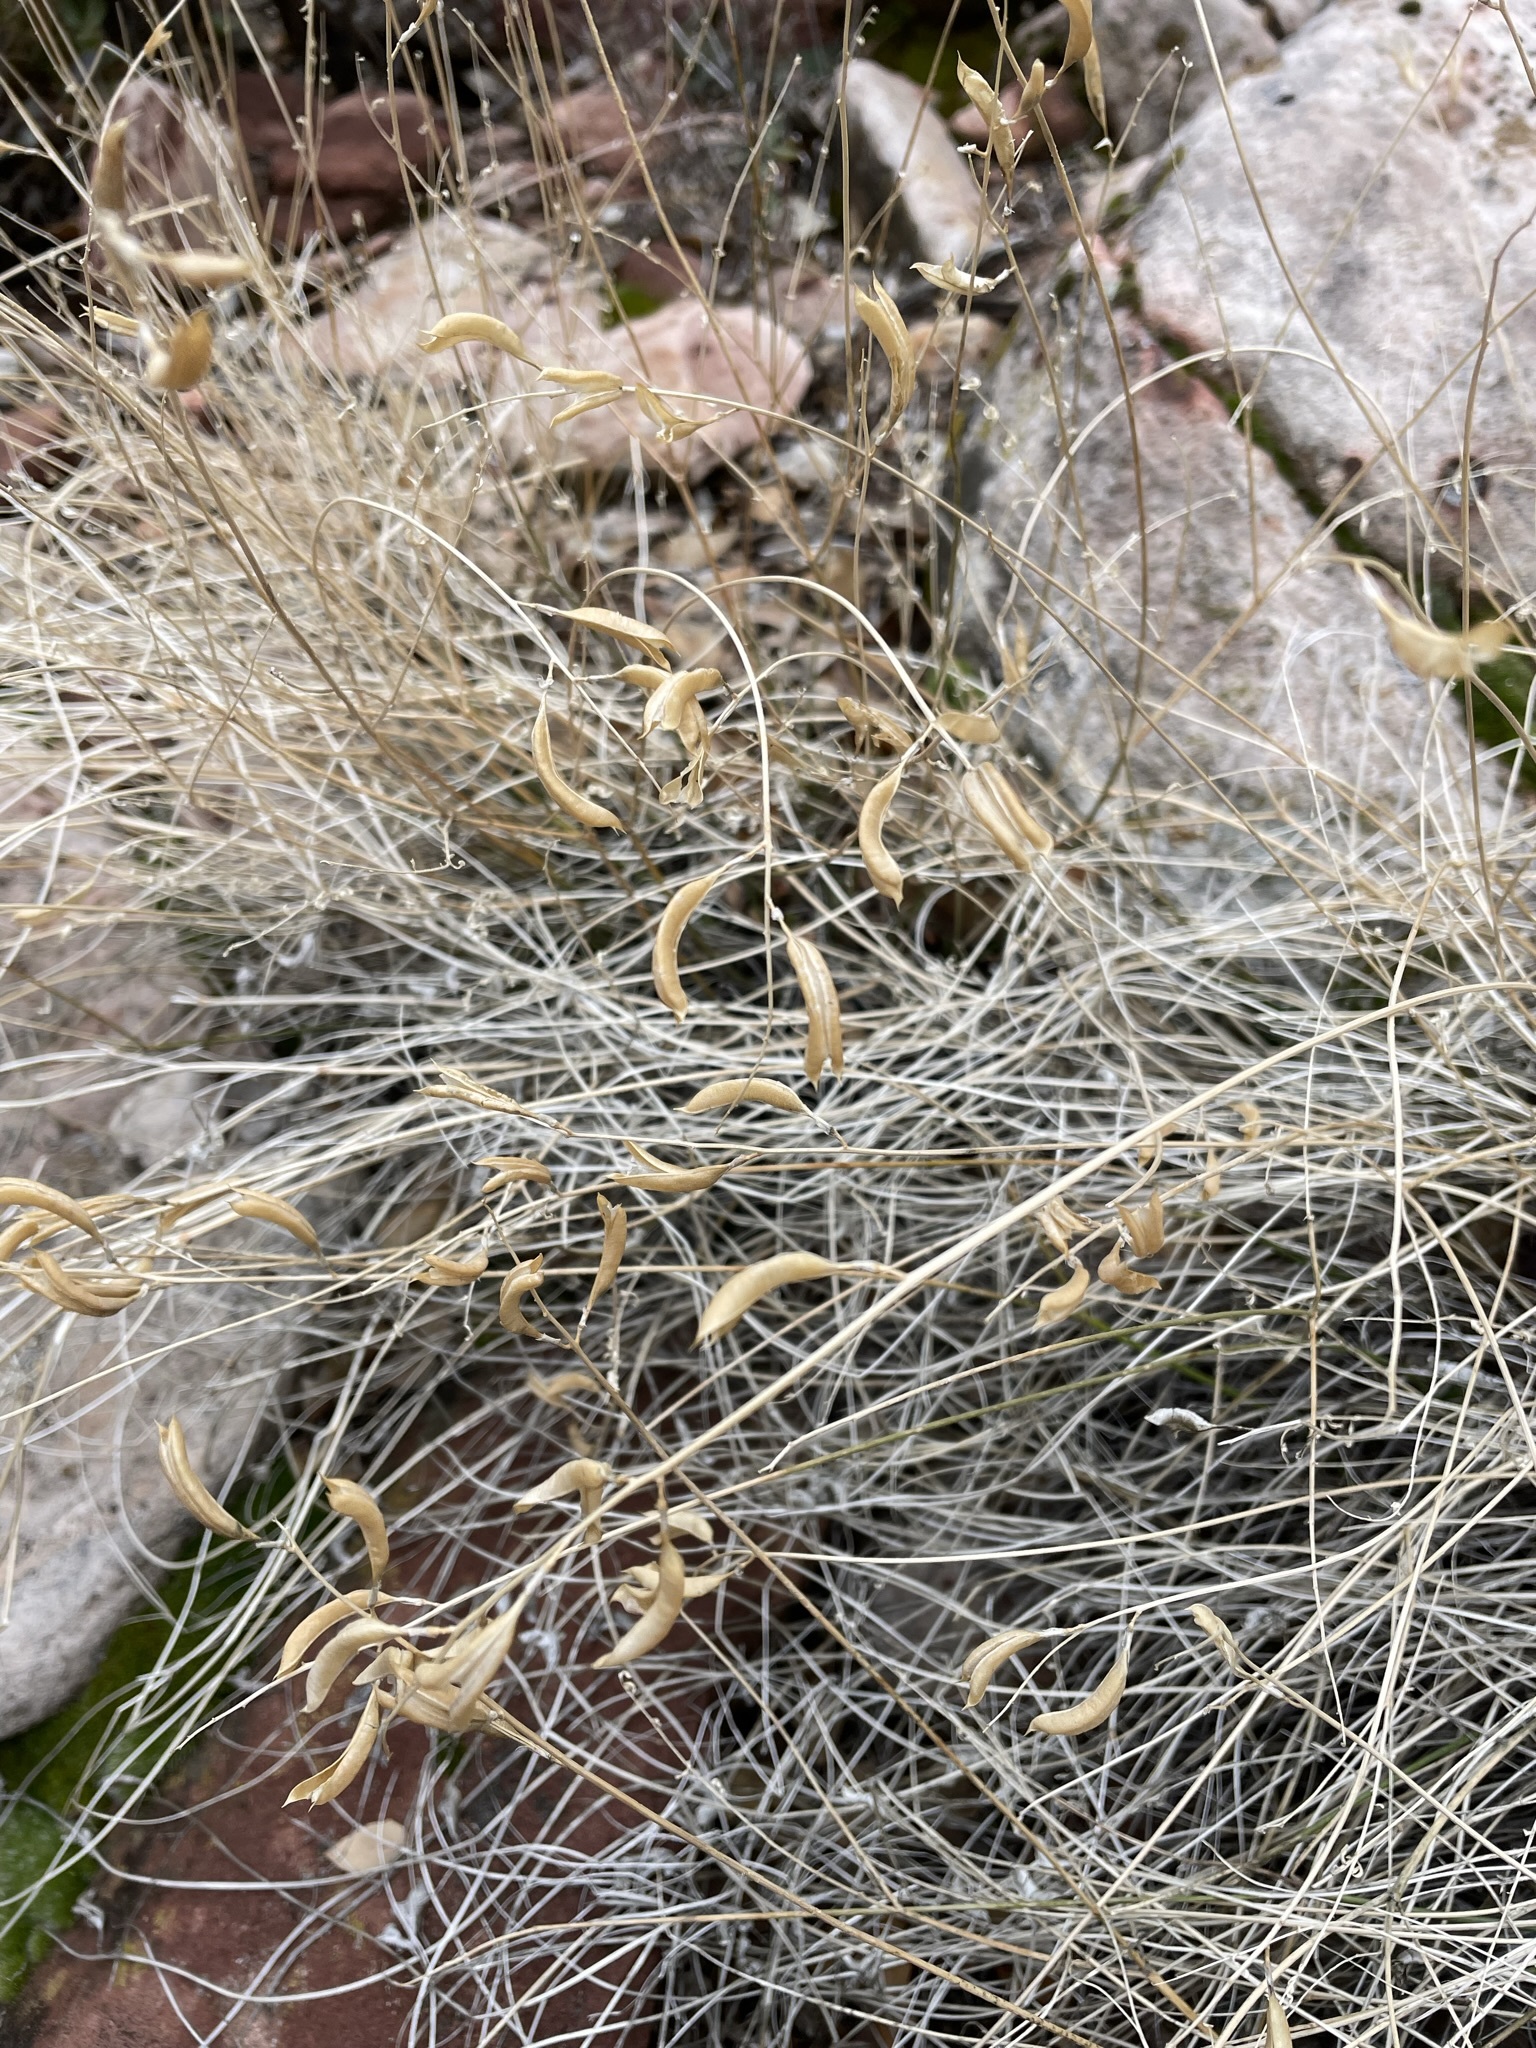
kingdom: Plantae
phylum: Tracheophyta
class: Magnoliopsida
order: Fabales
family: Fabaceae
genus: Astragalus
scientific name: Astragalus remotus
